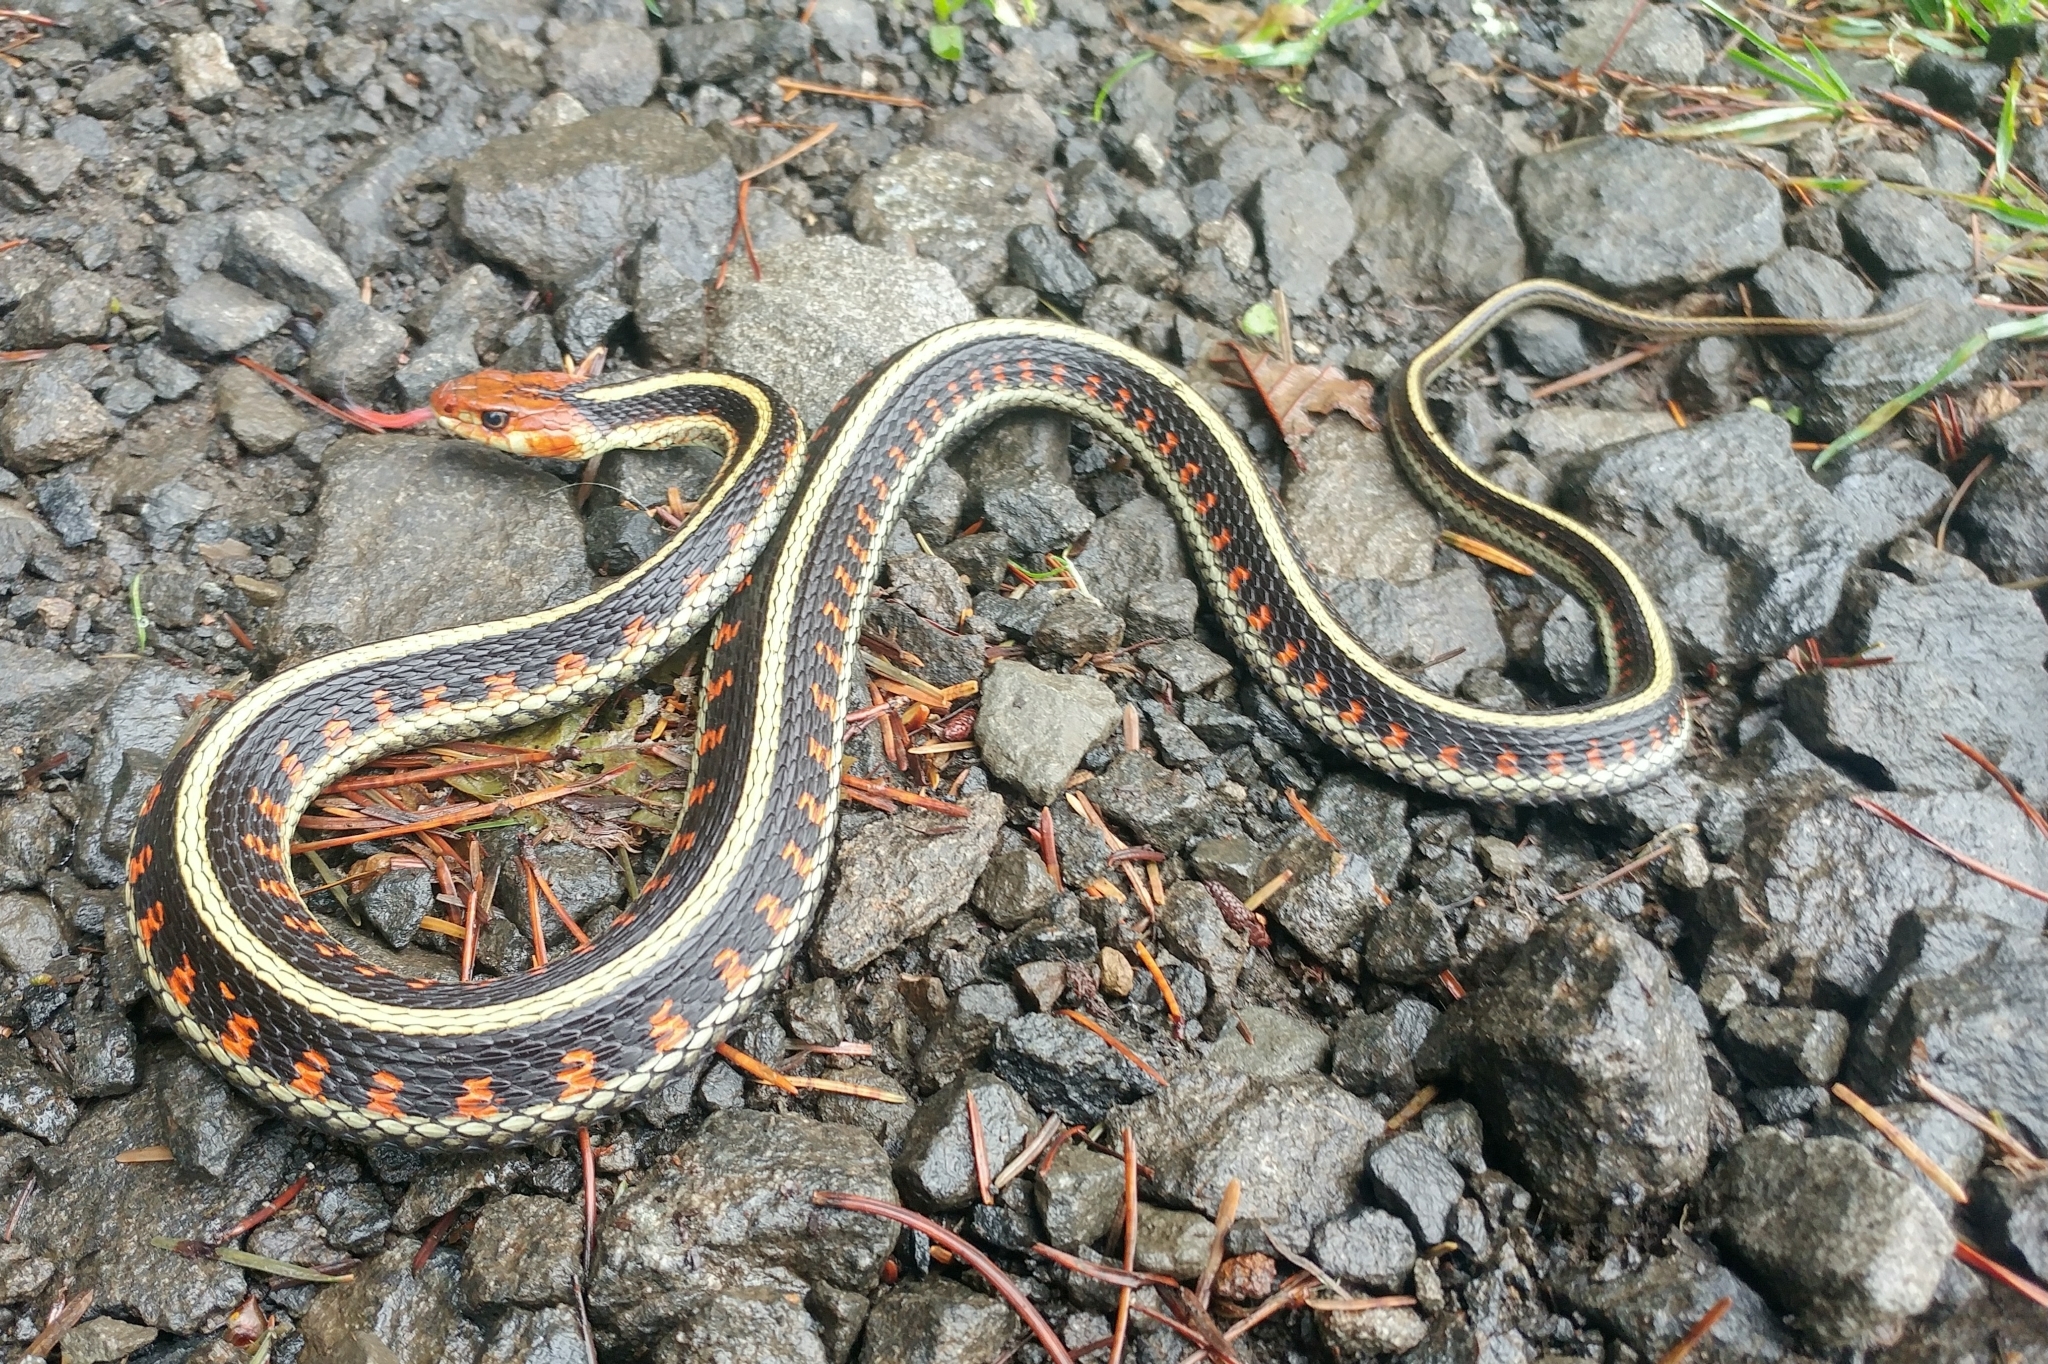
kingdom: Animalia
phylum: Chordata
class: Squamata
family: Colubridae
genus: Thamnophis
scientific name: Thamnophis sirtalis
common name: Common garter snake
